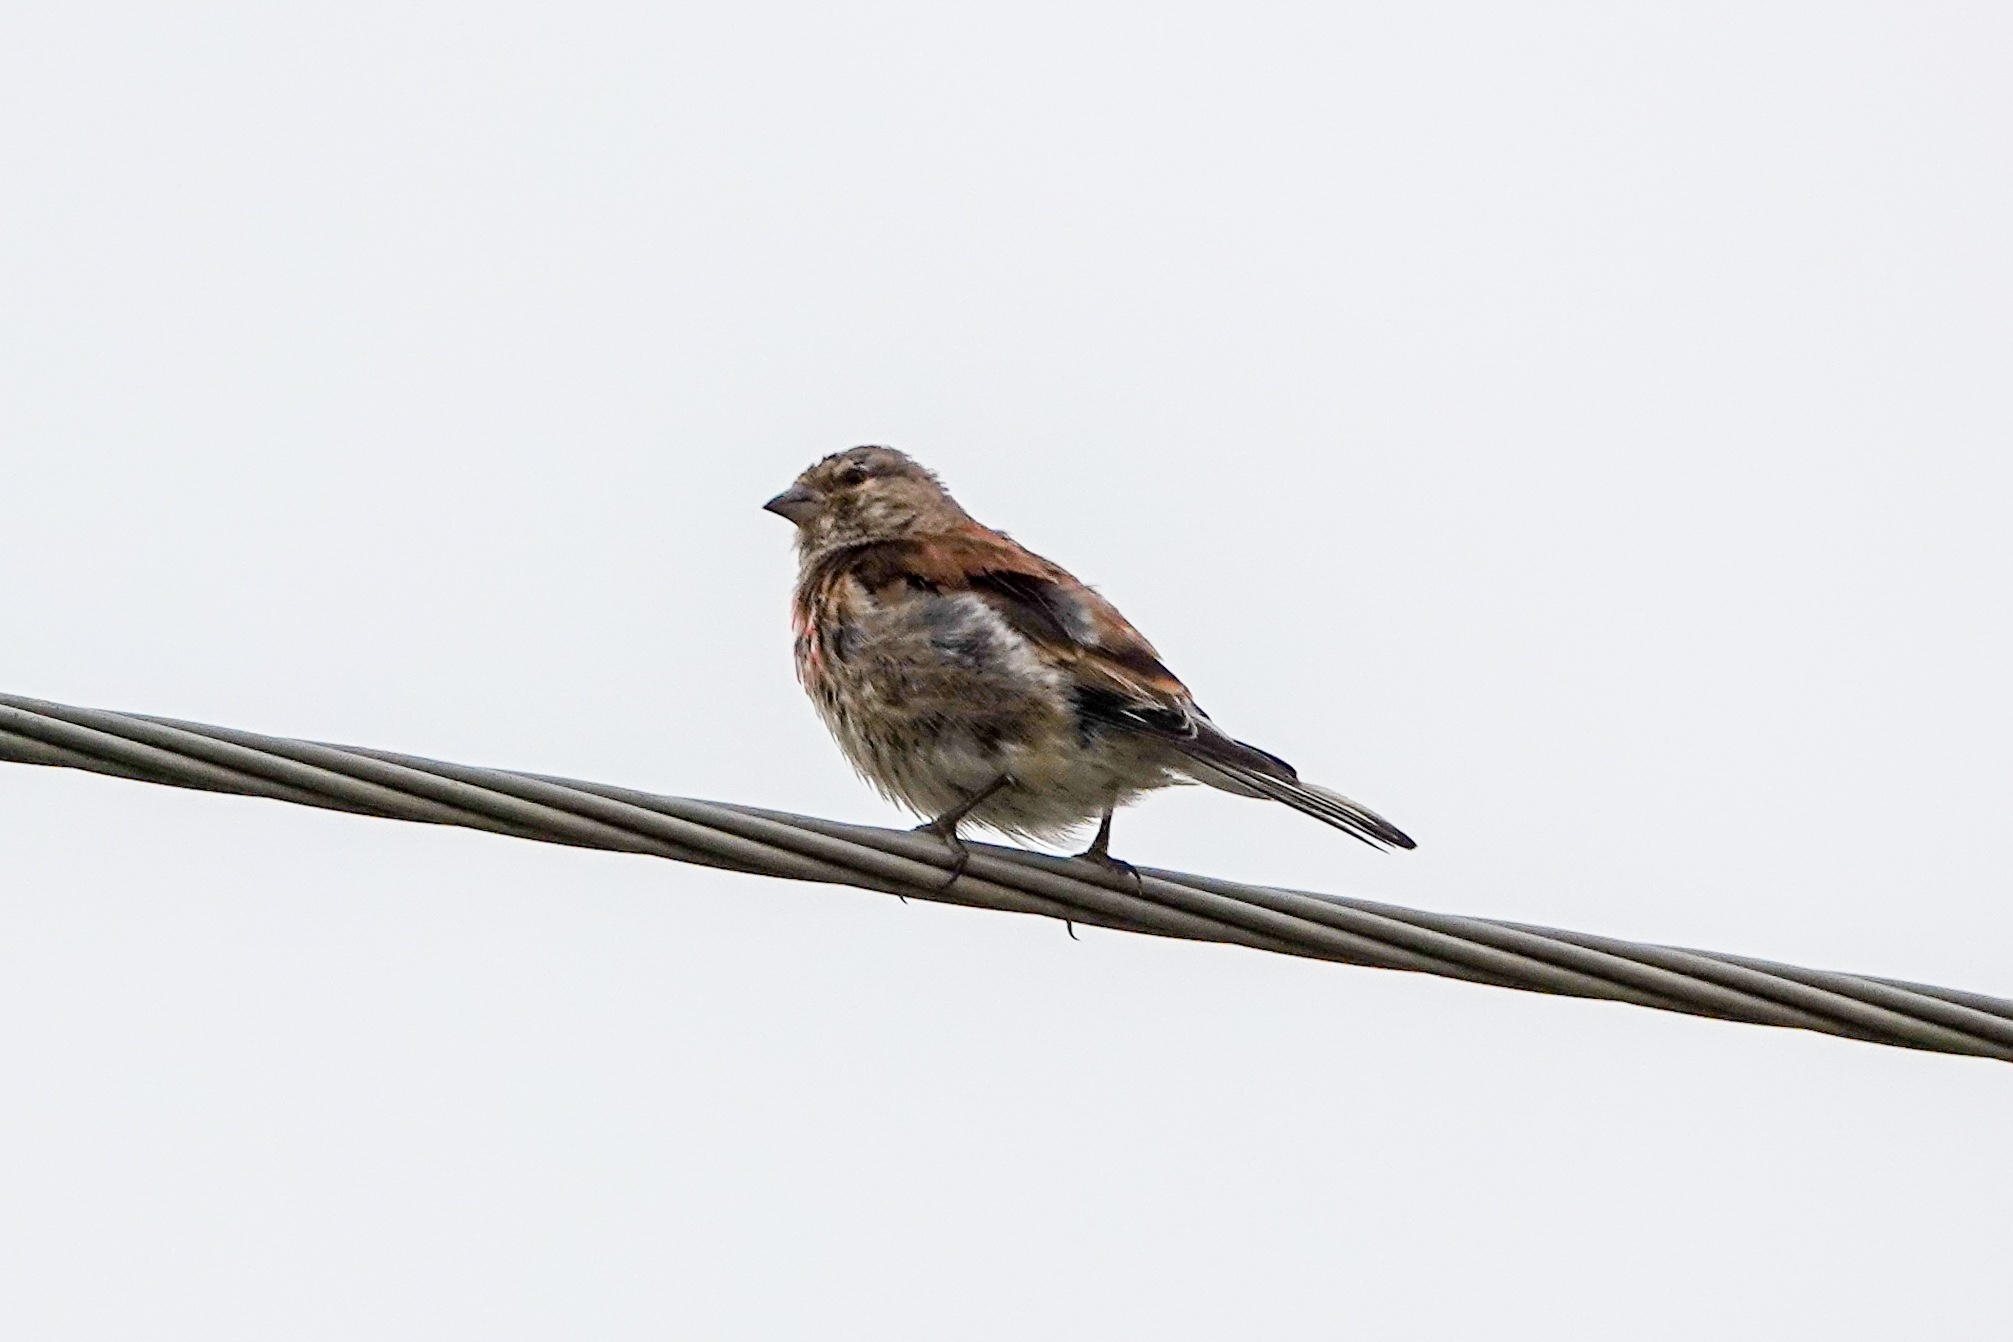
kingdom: Animalia
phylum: Chordata
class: Aves
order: Passeriformes
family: Fringillidae
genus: Linaria
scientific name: Linaria cannabina
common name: Common linnet
